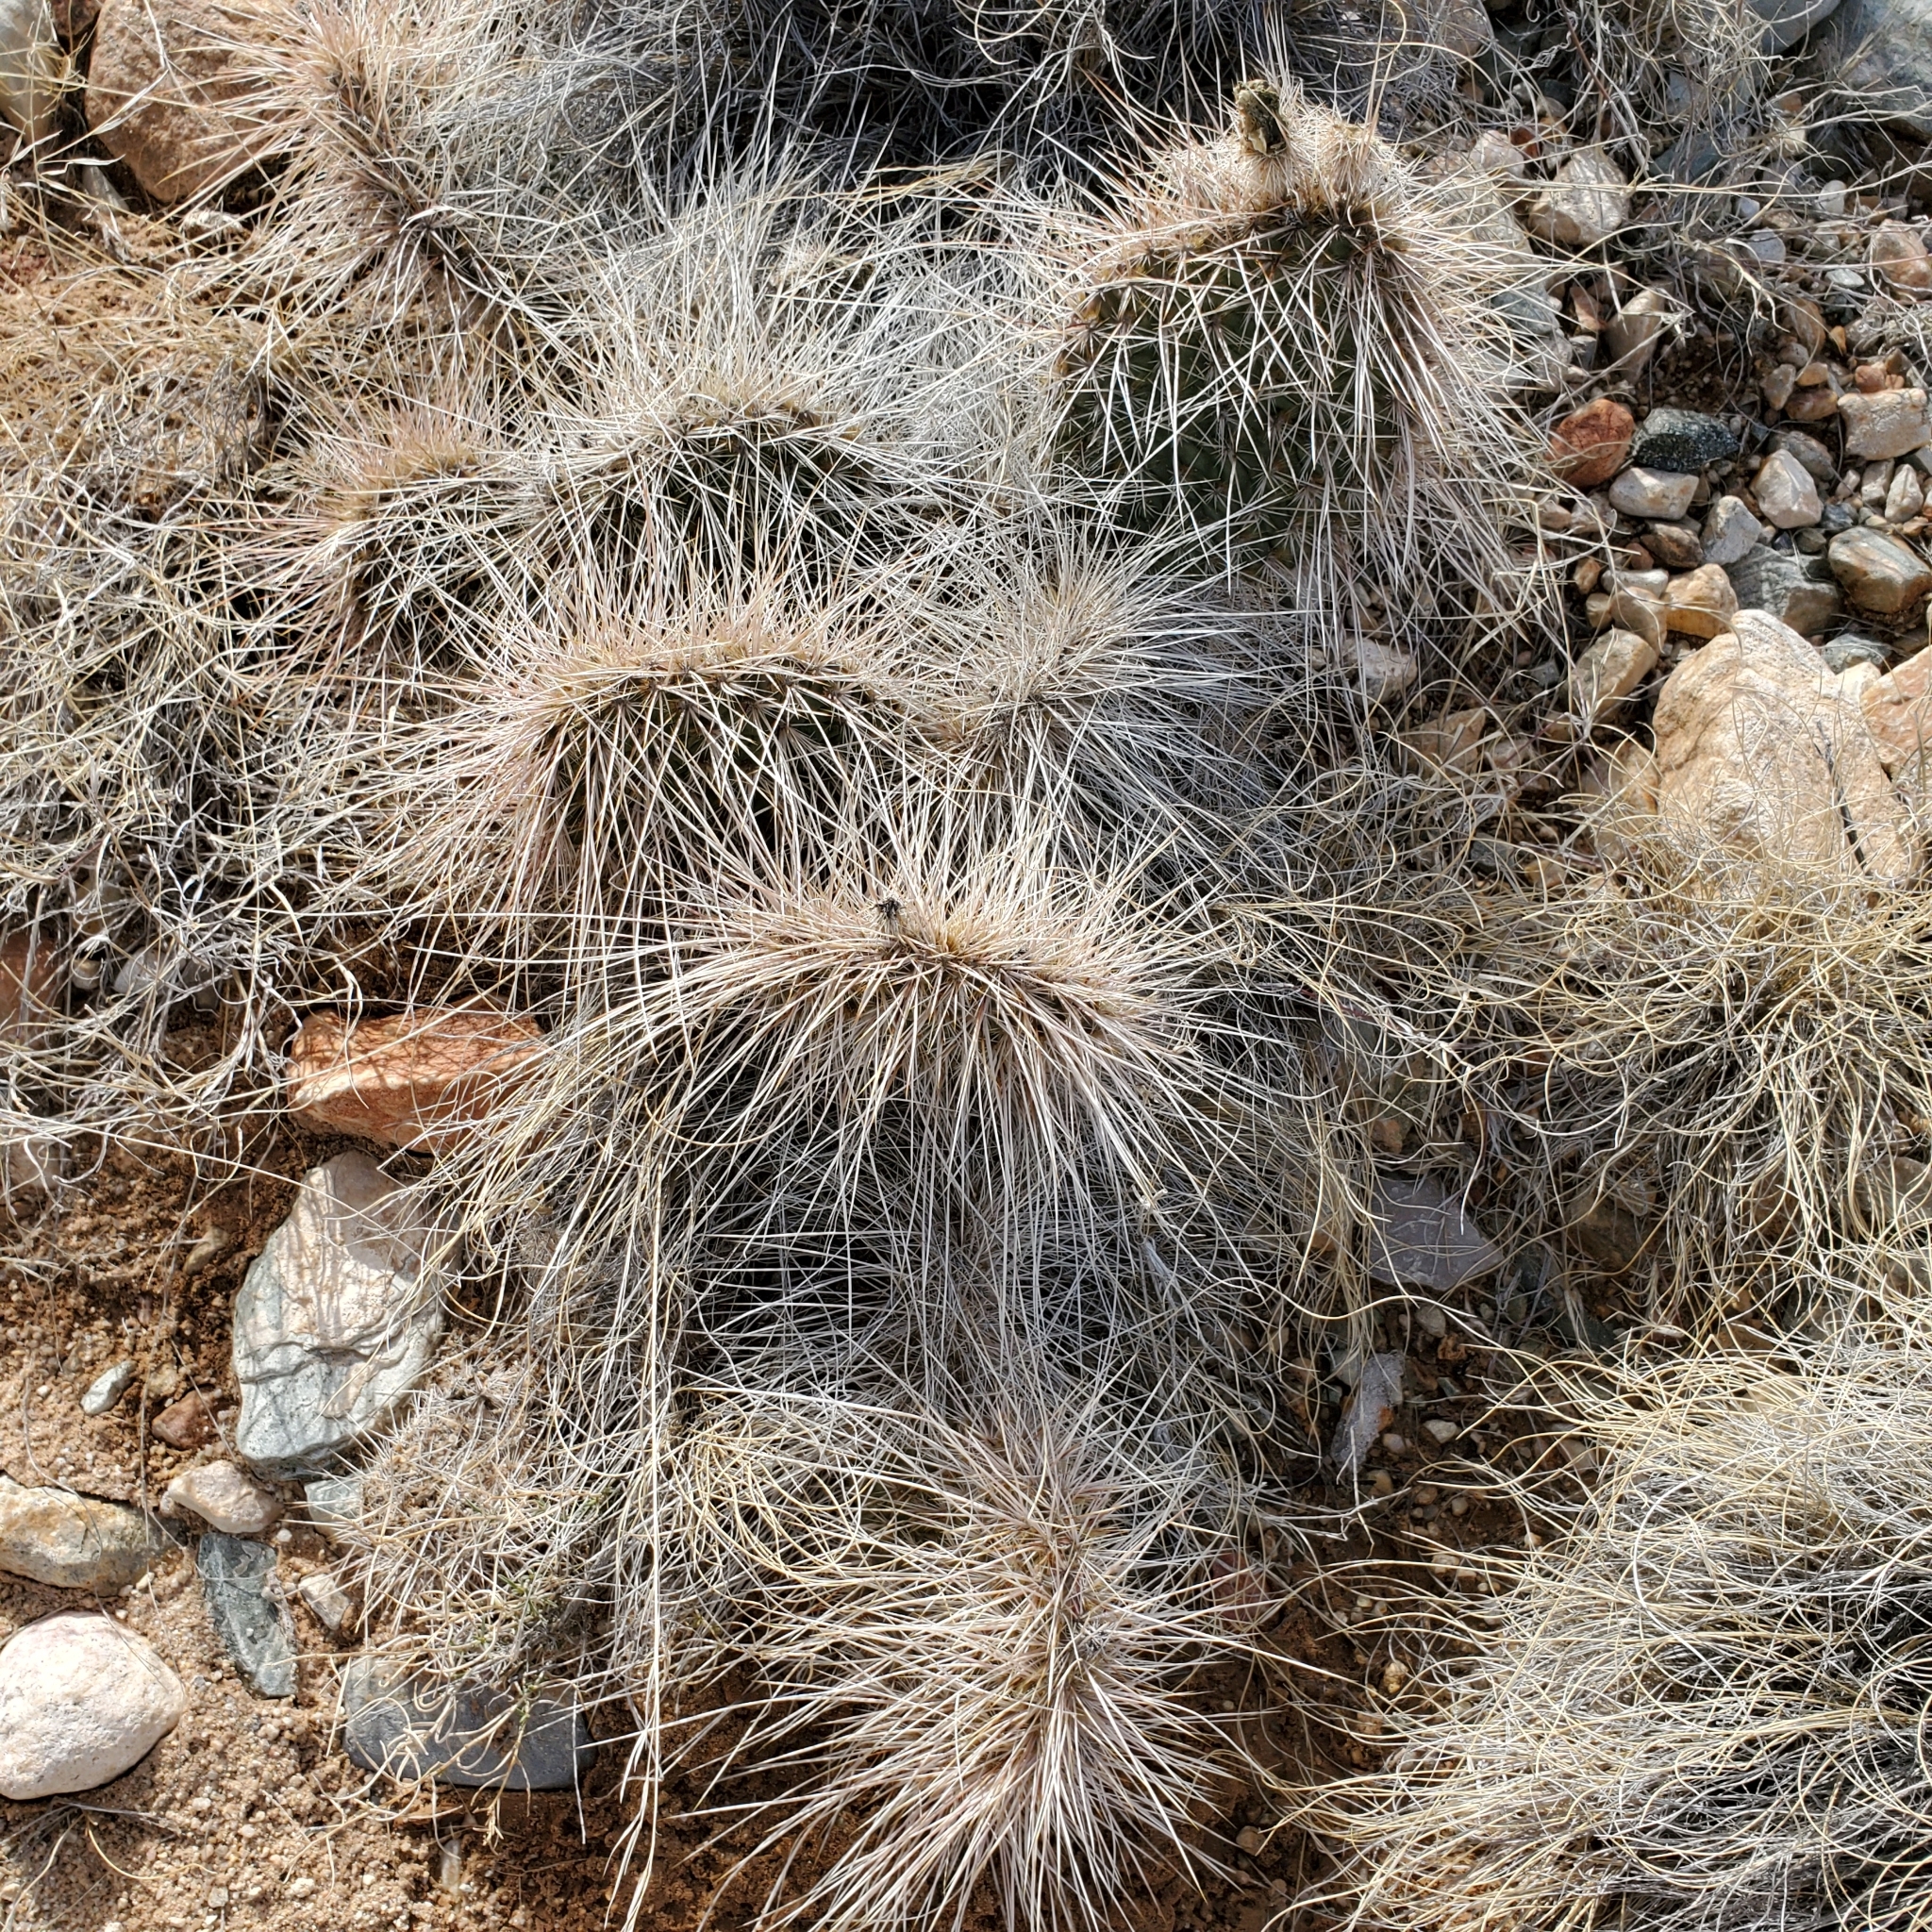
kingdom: Plantae
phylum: Tracheophyta
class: Magnoliopsida
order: Caryophyllales
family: Cactaceae
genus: Opuntia
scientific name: Opuntia polyacantha
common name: Plains prickly-pear
